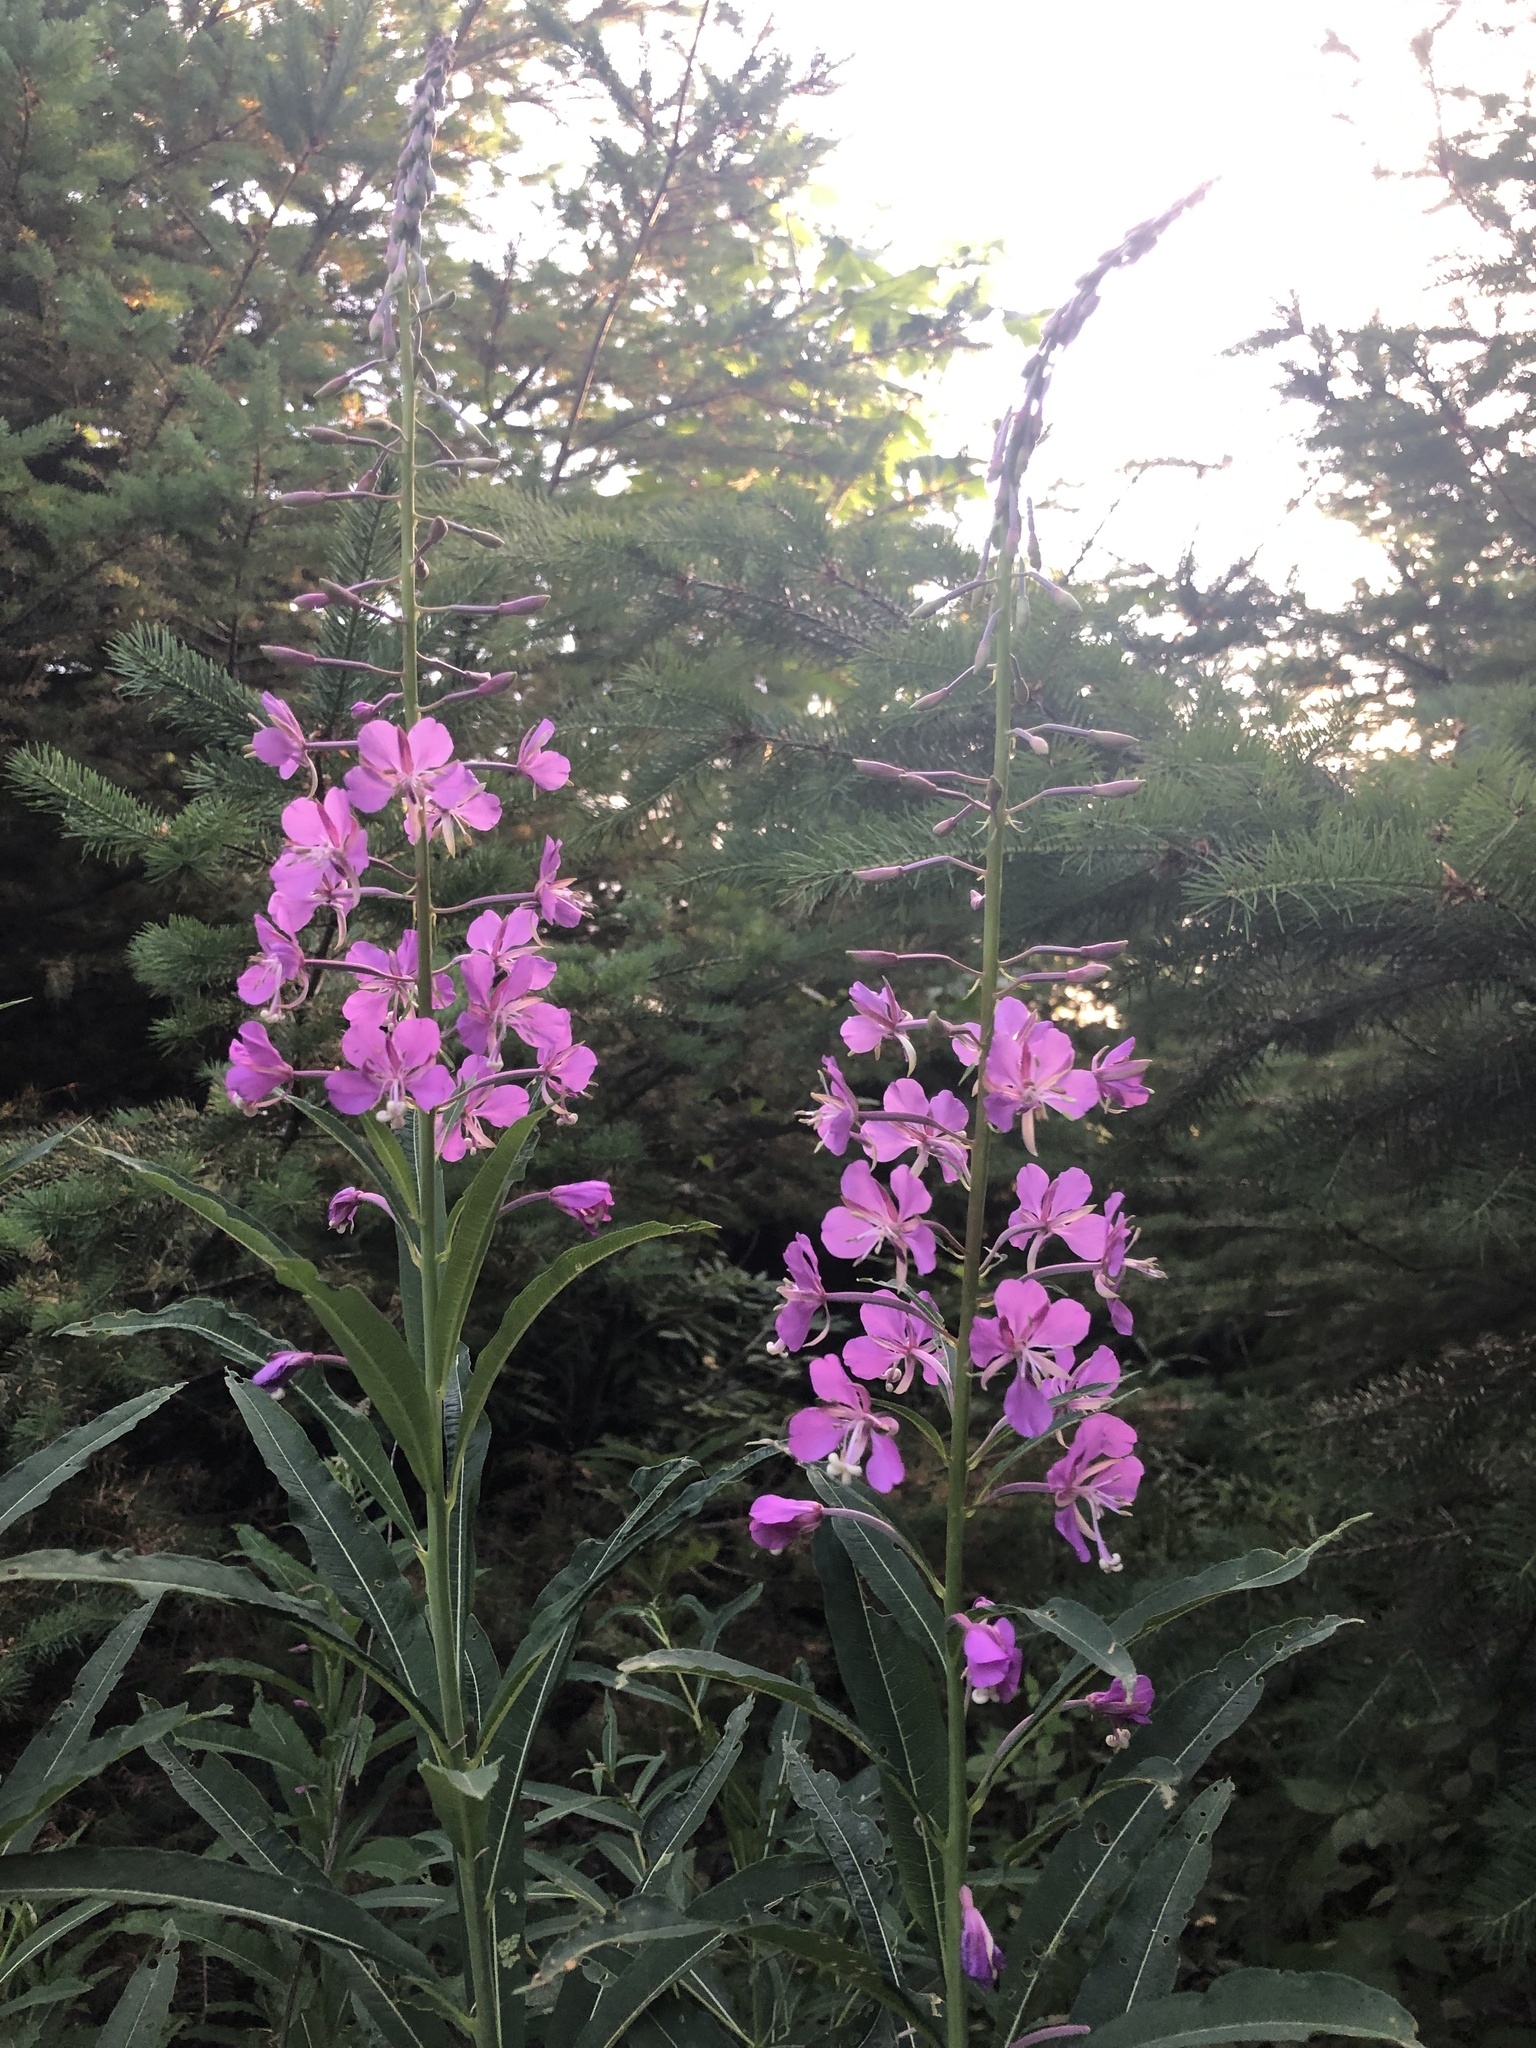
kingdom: Plantae
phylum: Tracheophyta
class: Magnoliopsida
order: Myrtales
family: Onagraceae
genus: Chamaenerion
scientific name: Chamaenerion angustifolium
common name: Fireweed
